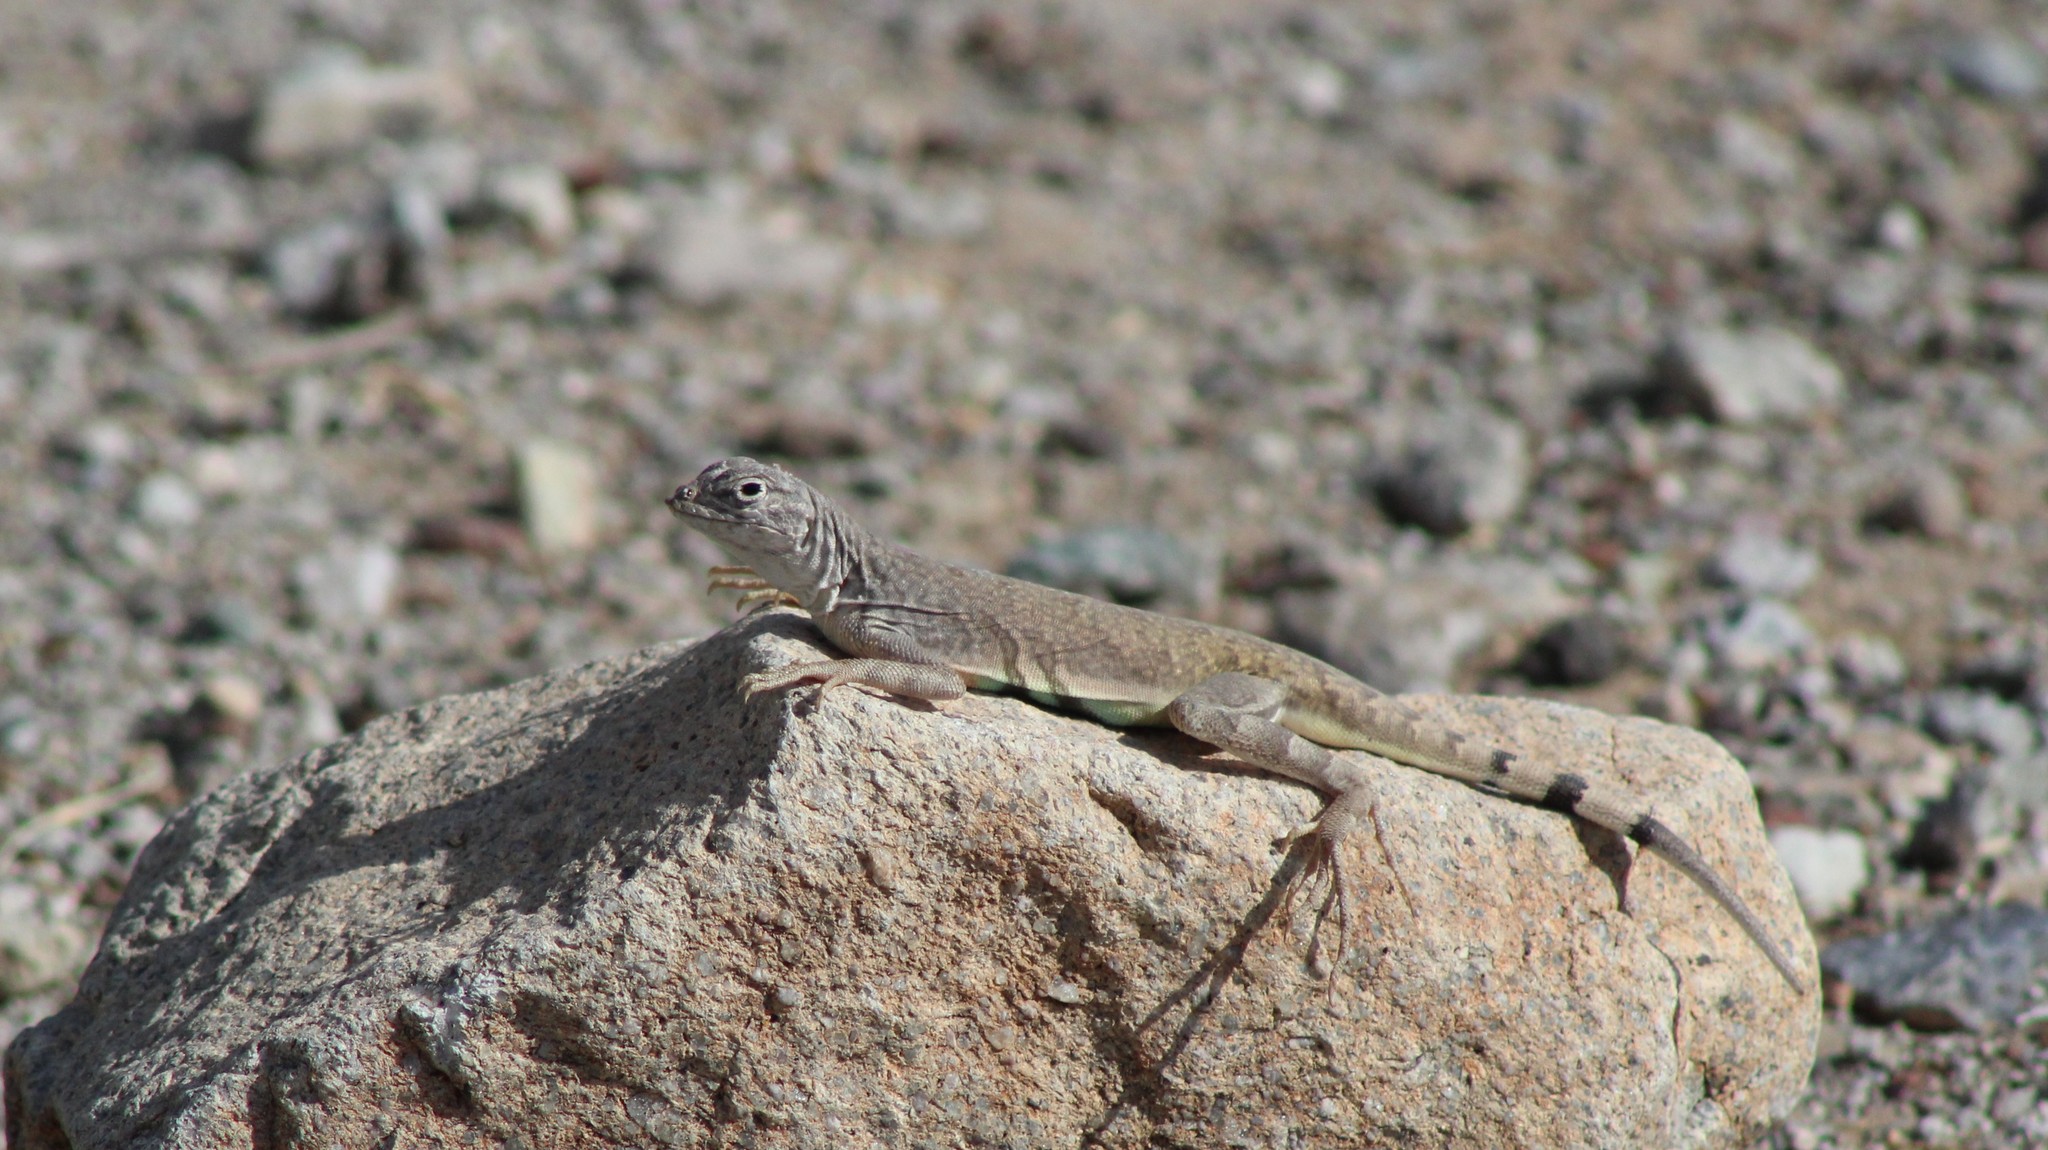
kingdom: Animalia
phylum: Chordata
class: Squamata
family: Phrynosomatidae
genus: Callisaurus
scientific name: Callisaurus draconoides
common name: Zebra-tailed lizard
